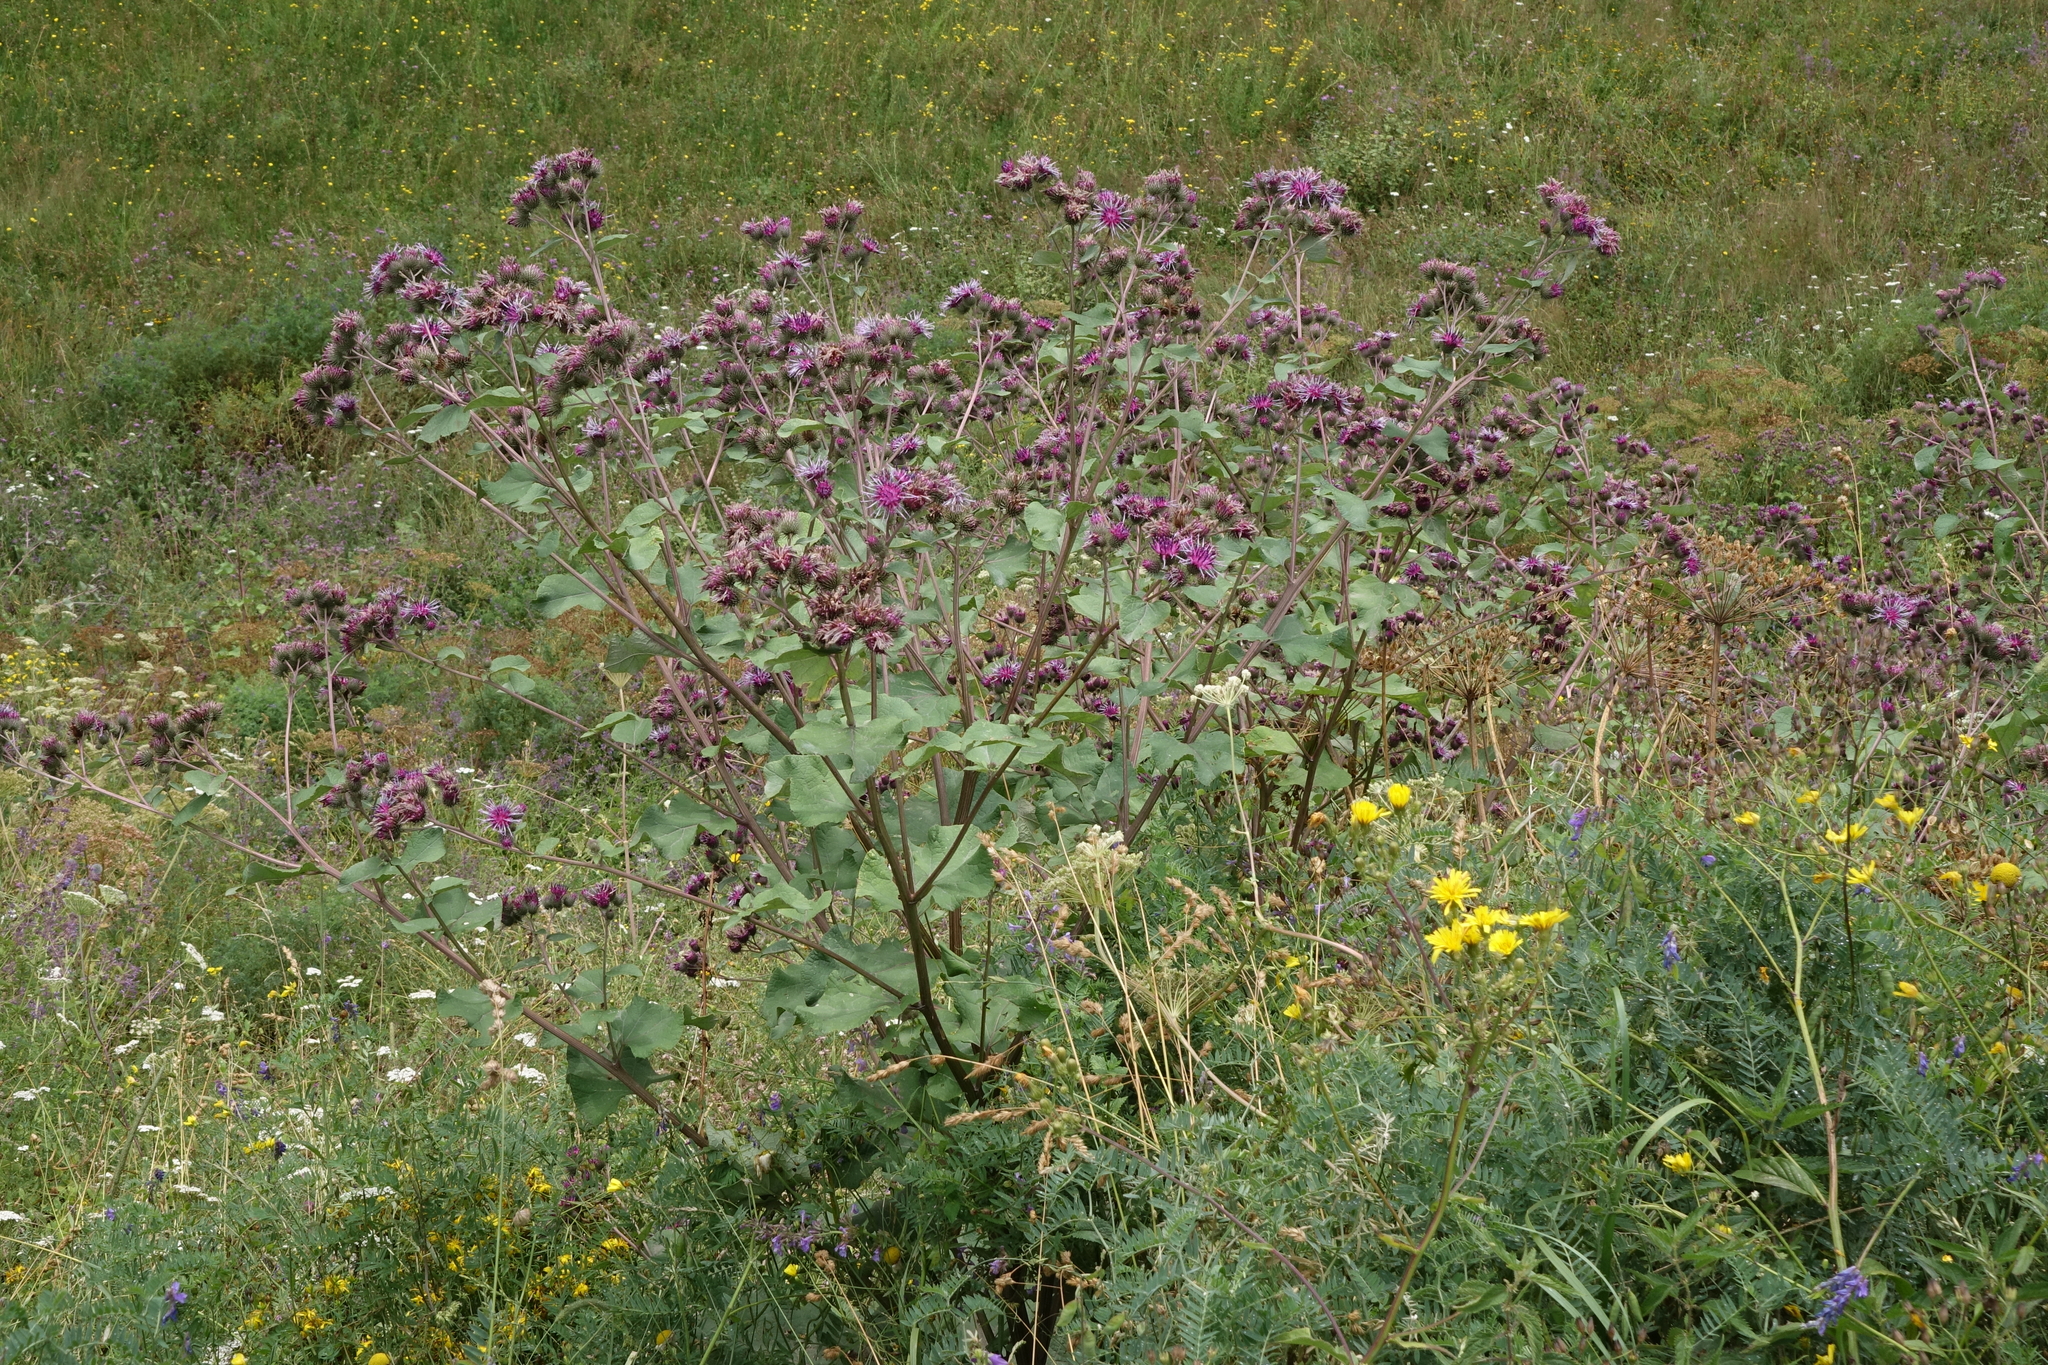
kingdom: Plantae
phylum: Tracheophyta
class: Magnoliopsida
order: Asterales
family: Asteraceae
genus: Arctium
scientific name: Arctium tomentosum
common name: Woolly burdock
